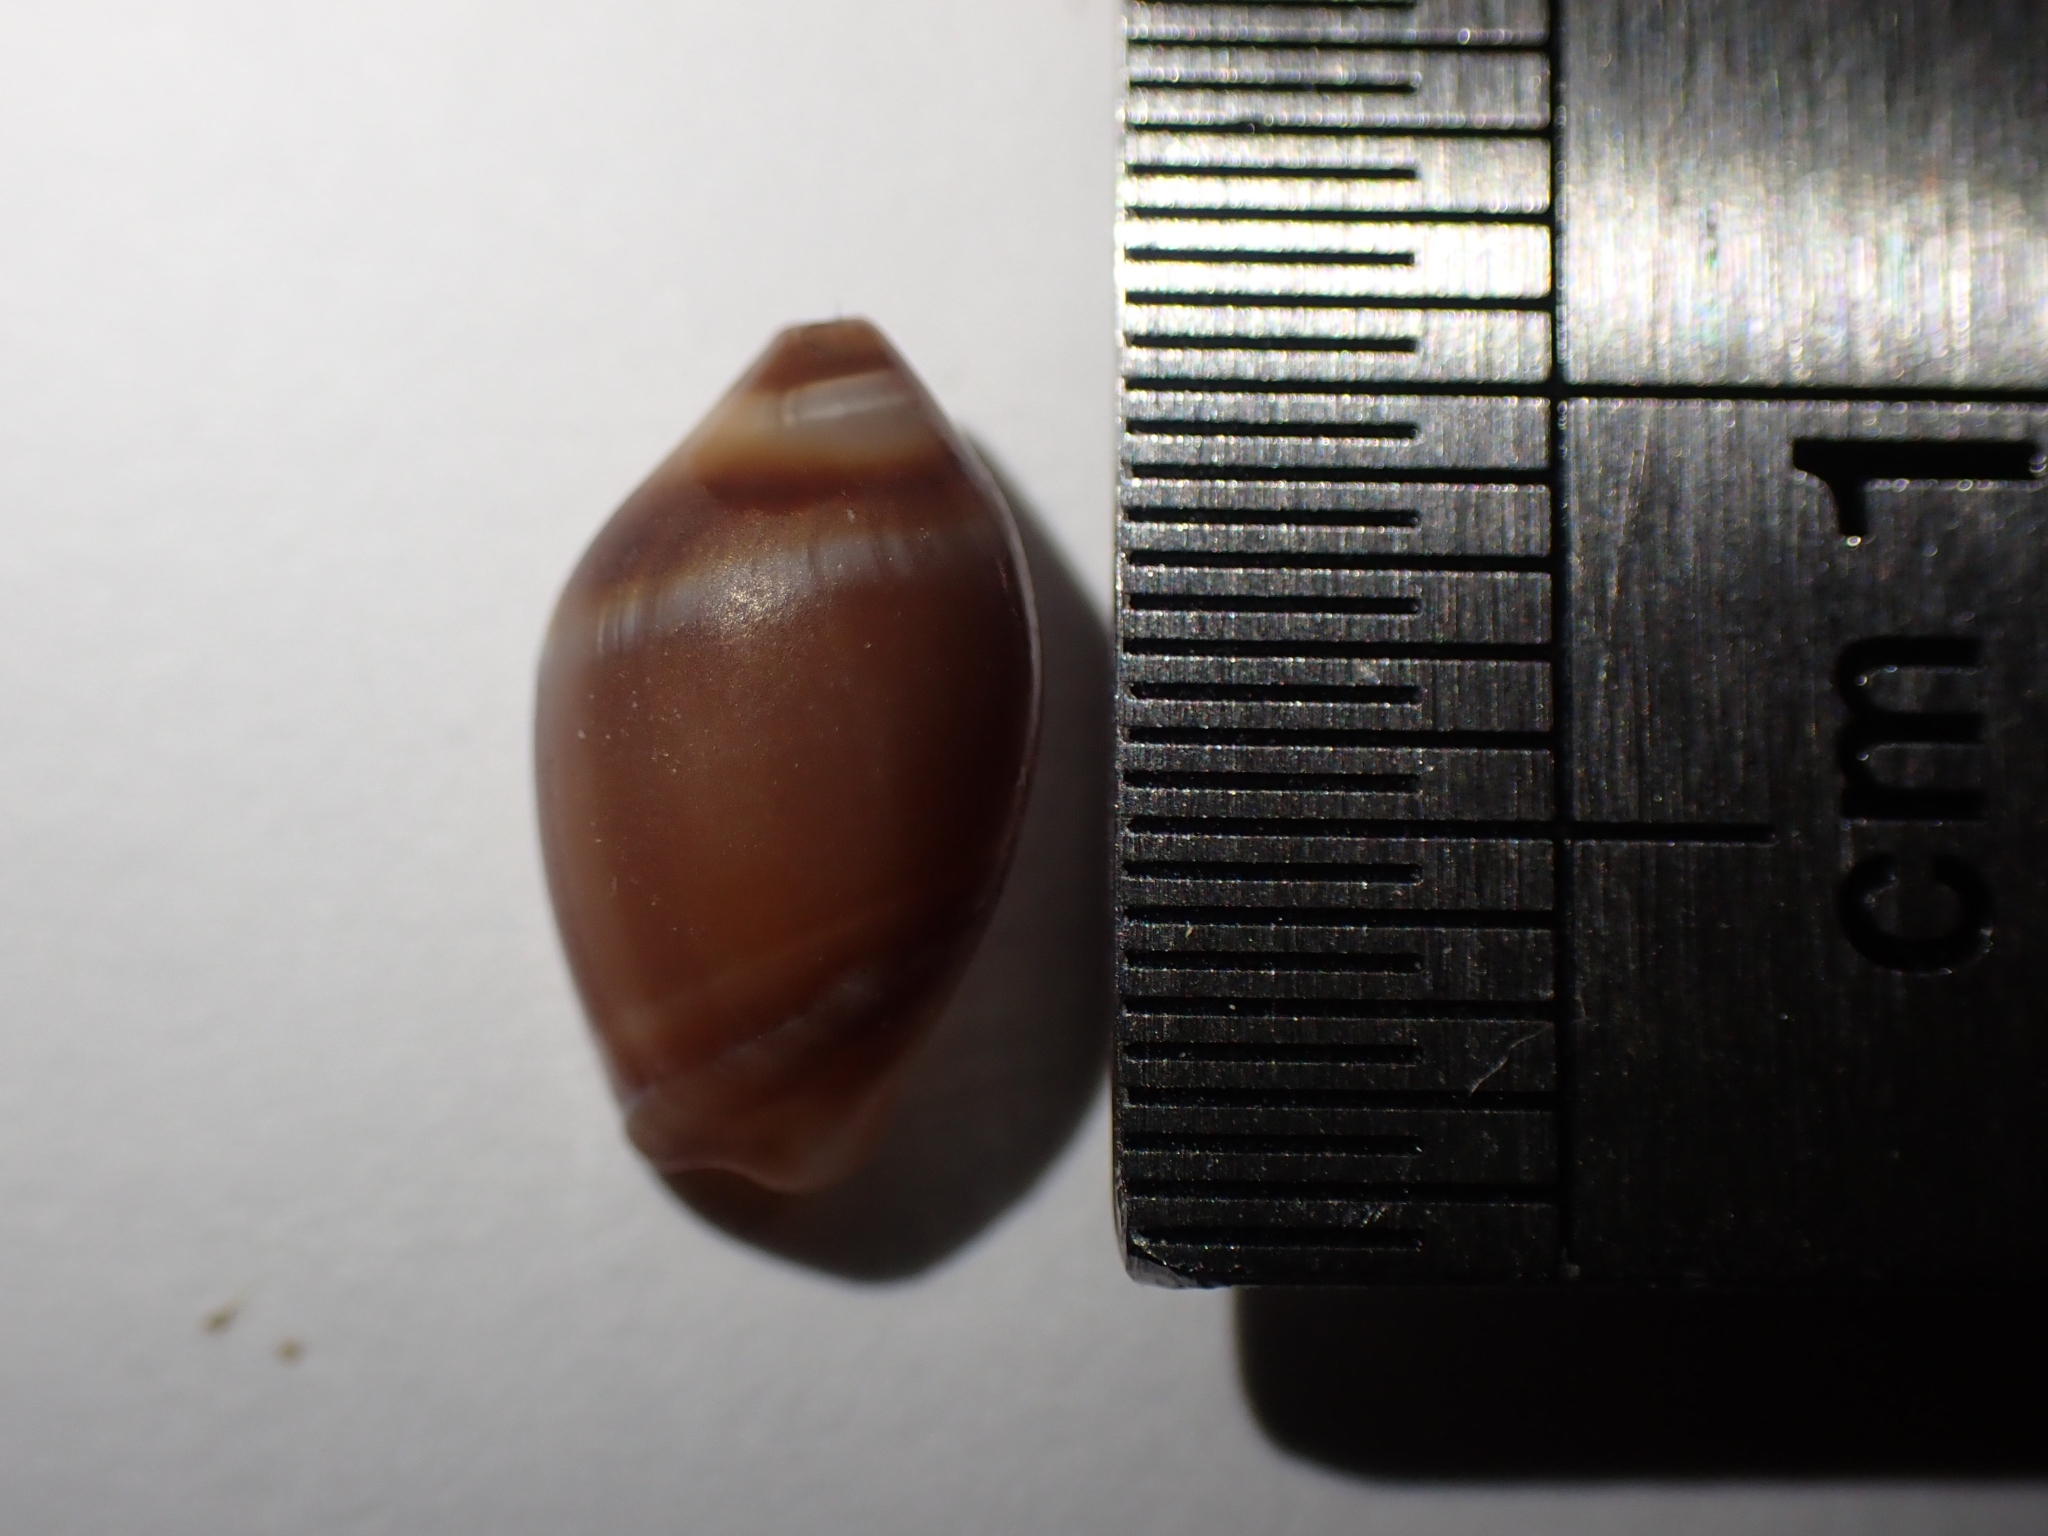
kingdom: Animalia
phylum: Mollusca
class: Gastropoda
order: Neogastropoda
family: Ancillariidae
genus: Amalda
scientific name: Amalda depressa
